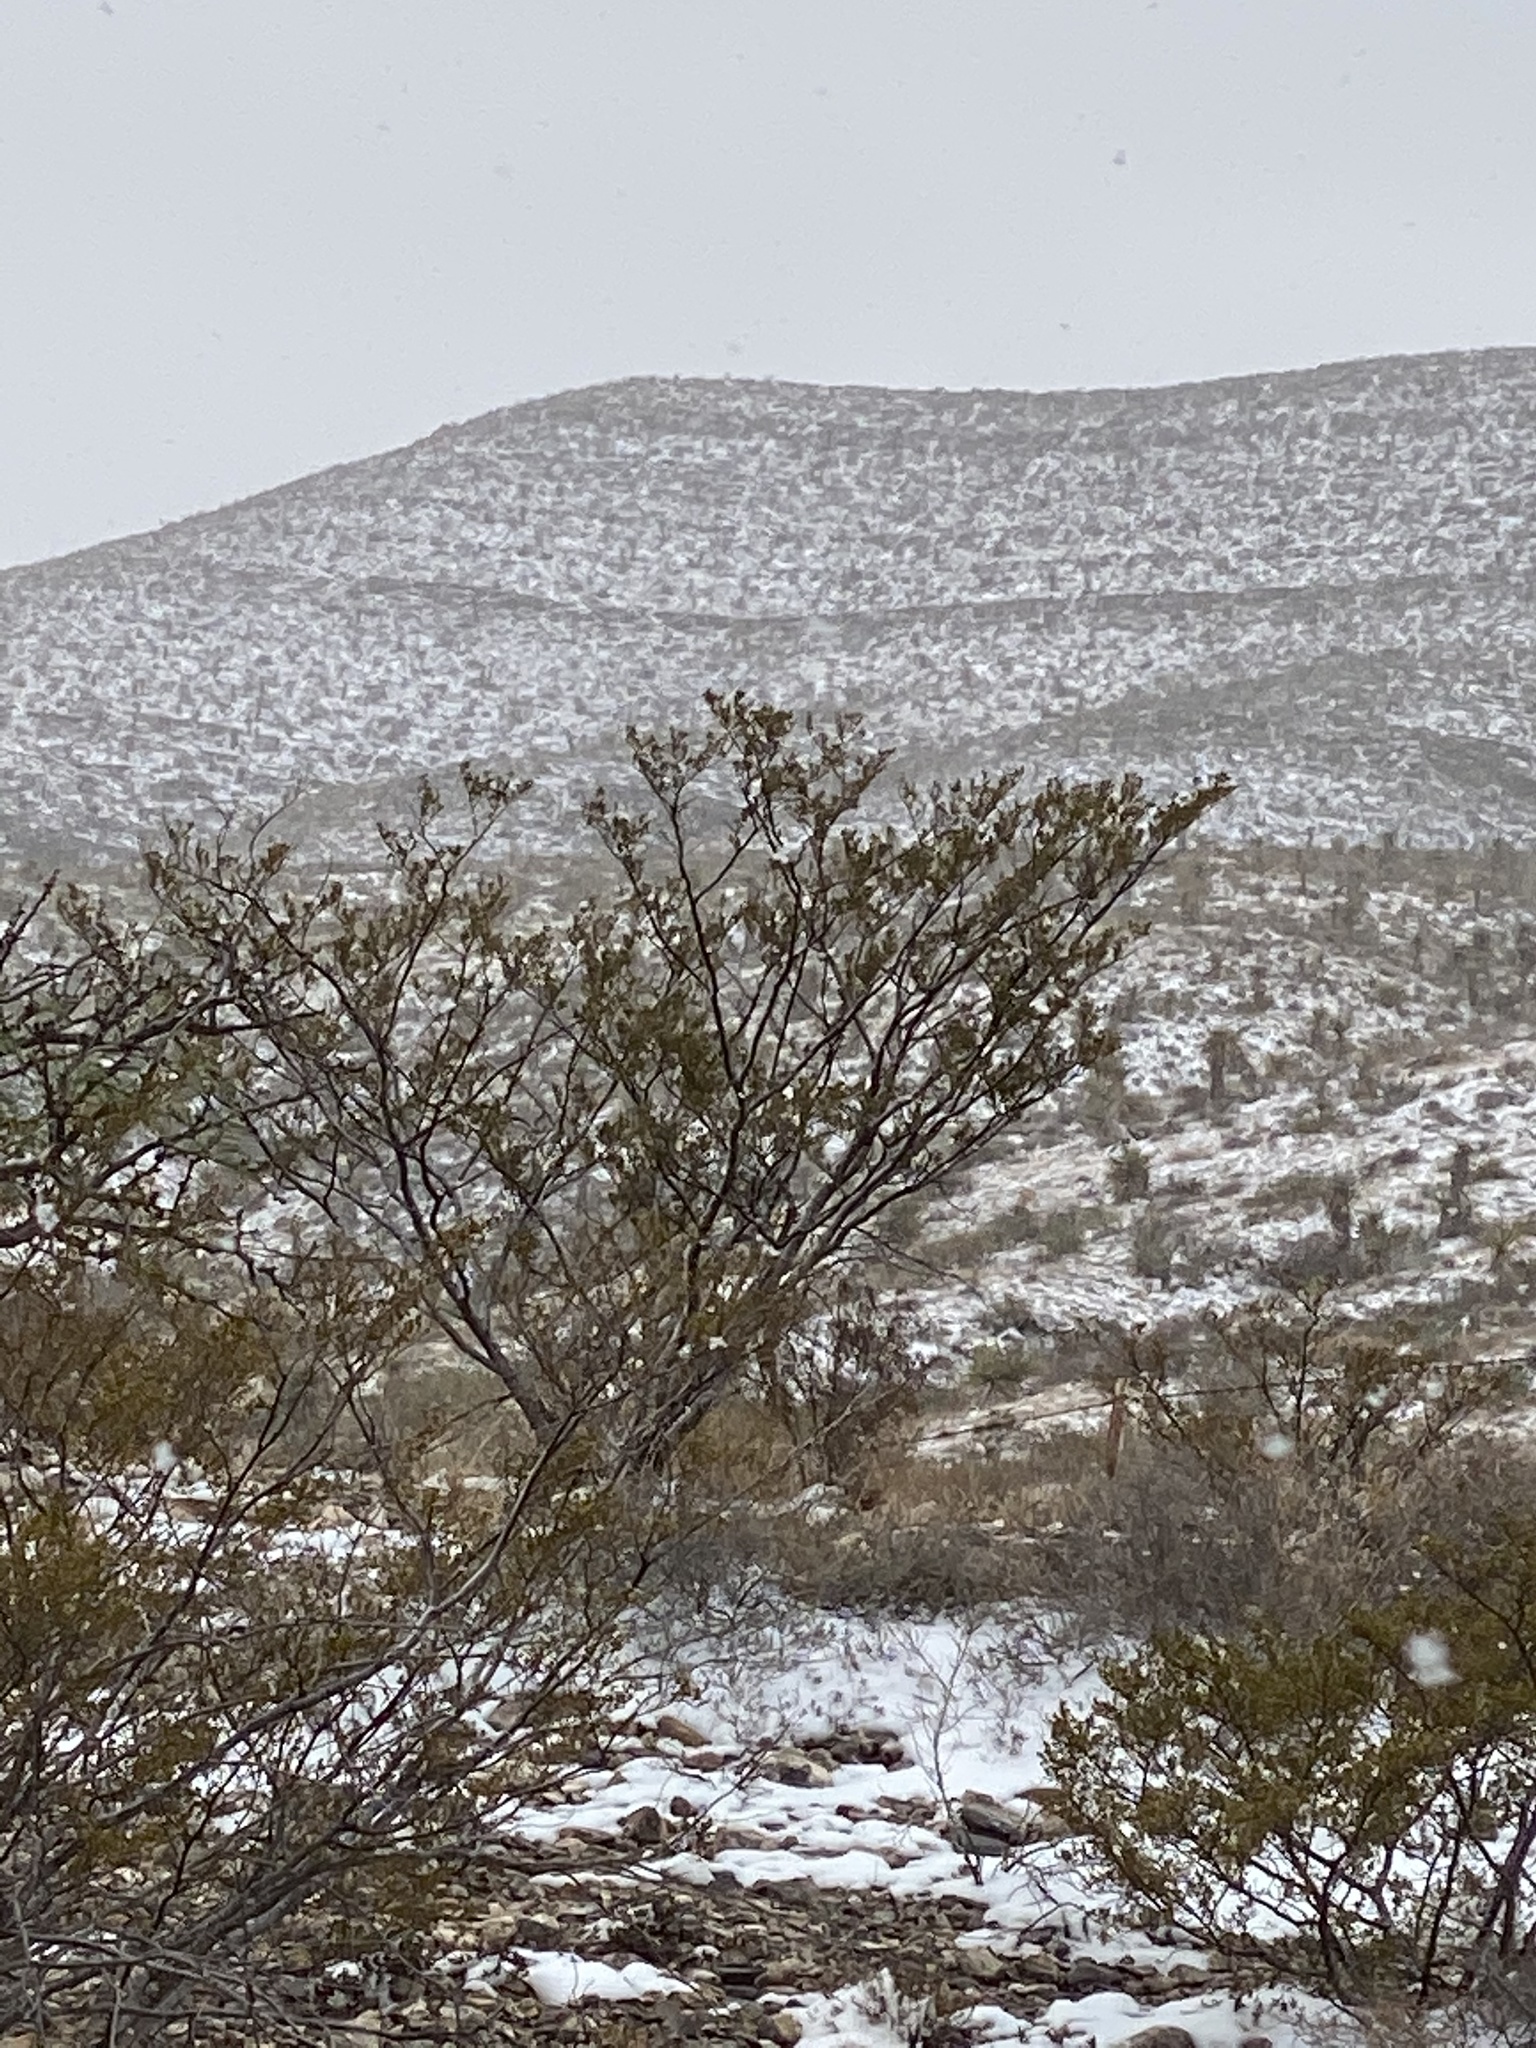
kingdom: Plantae
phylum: Tracheophyta
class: Magnoliopsida
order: Zygophyllales
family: Zygophyllaceae
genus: Larrea
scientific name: Larrea tridentata
